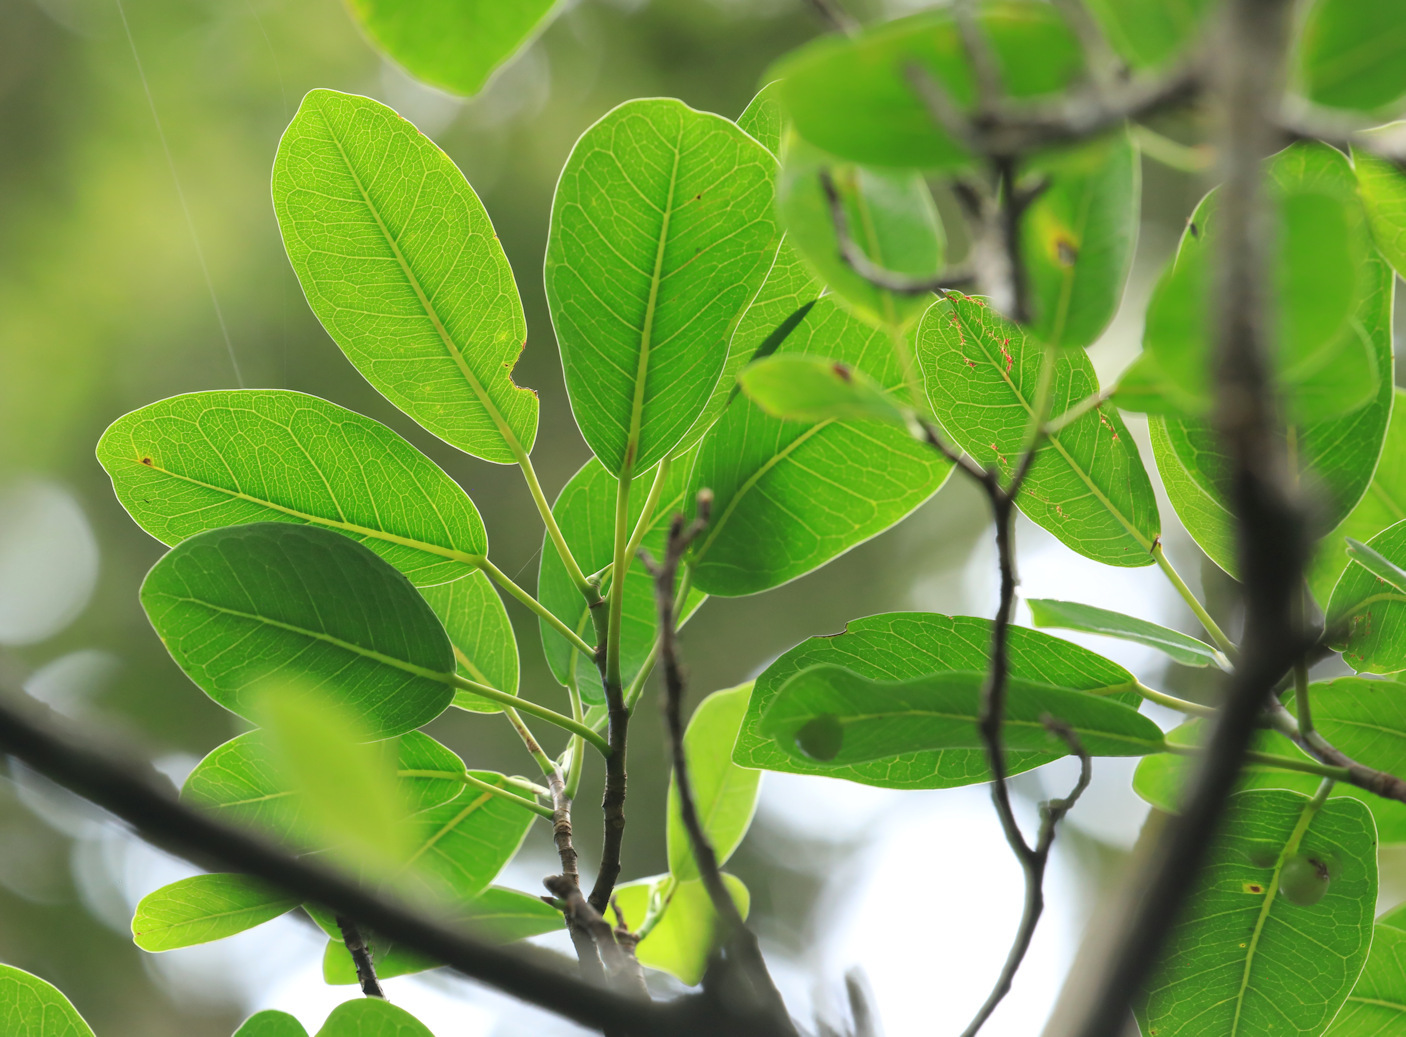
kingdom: Plantae
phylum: Tracheophyta
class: Magnoliopsida
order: Rosales
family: Moraceae
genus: Ficus
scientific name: Ficus thonningii
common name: Fig
